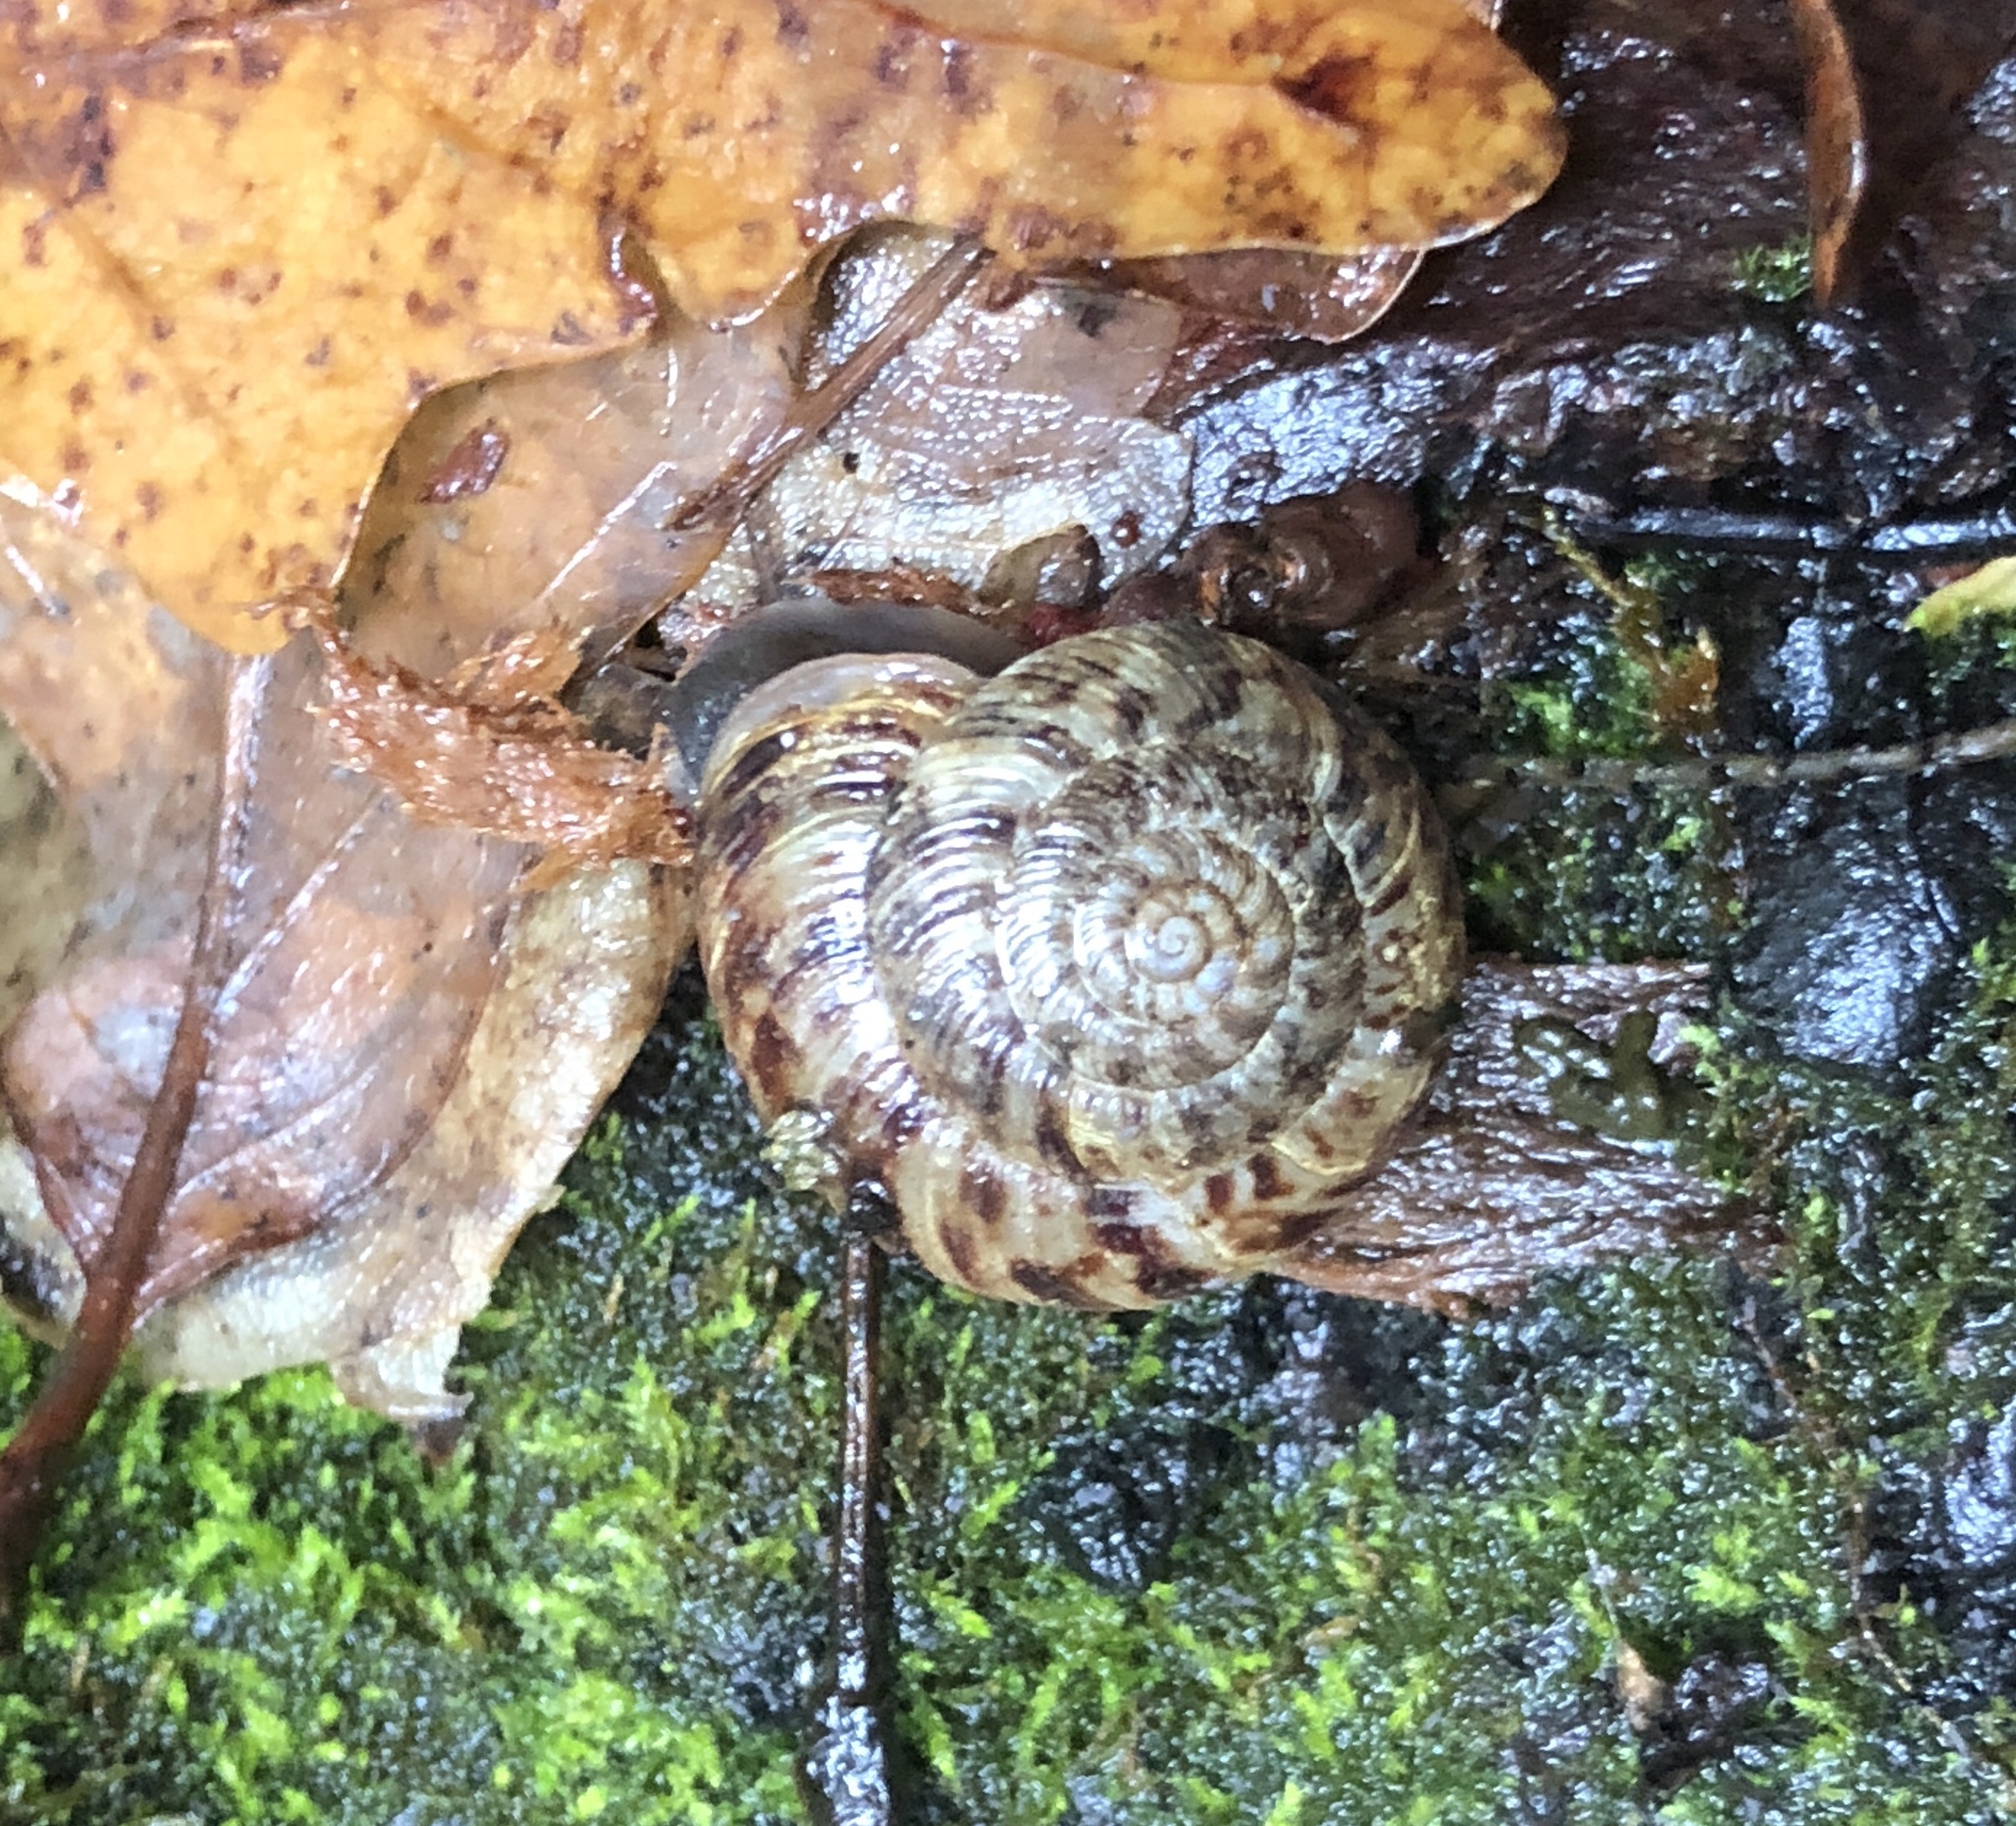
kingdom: Animalia
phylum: Mollusca
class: Gastropoda
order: Stylommatophora
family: Discidae
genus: Anguispira
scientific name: Anguispira alternata
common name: Flamed tigersnail
